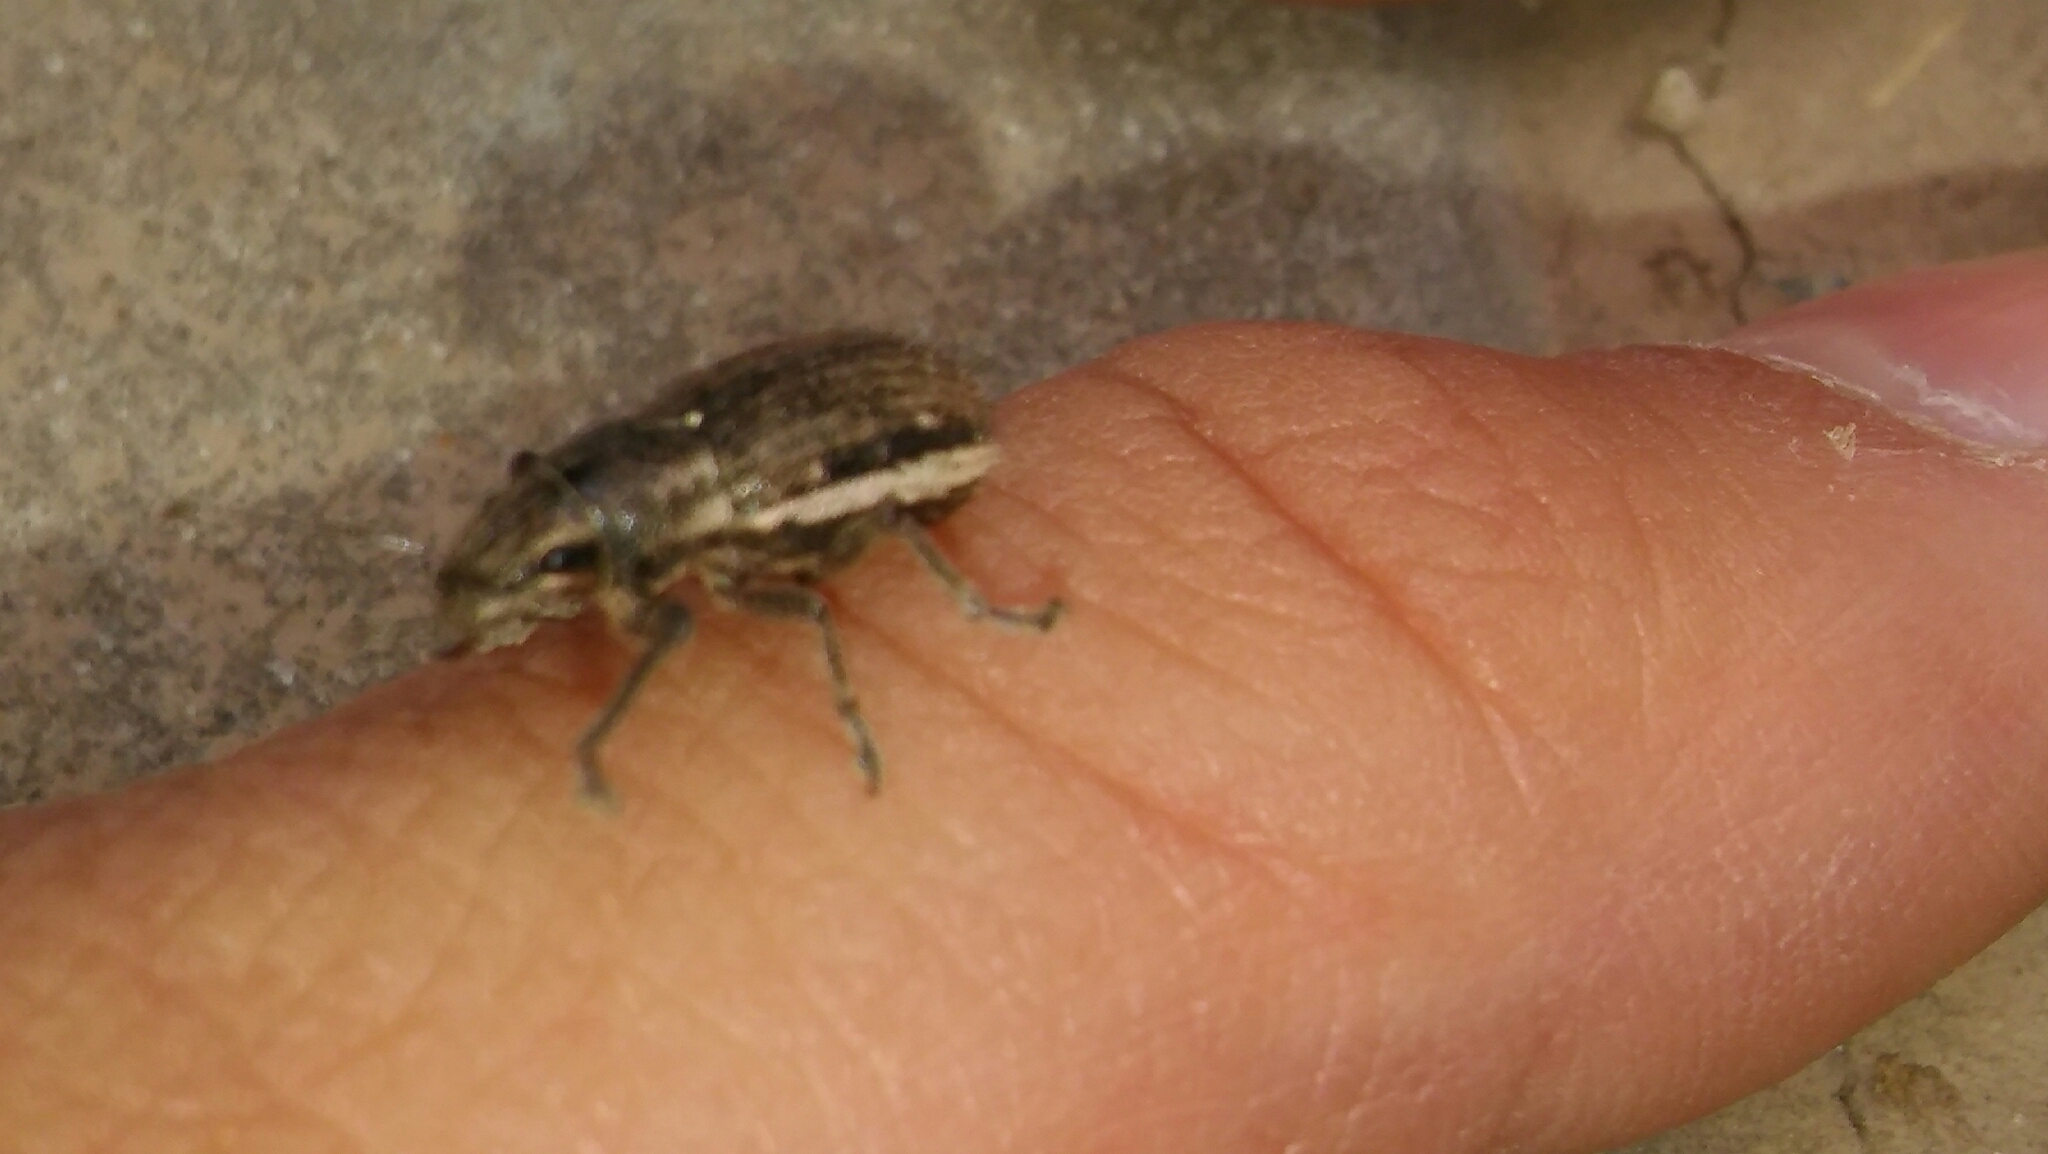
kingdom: Animalia
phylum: Arthropoda
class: Insecta
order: Coleoptera
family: Curculionidae
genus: Naupactus
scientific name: Naupactus leucoloma
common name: Whitefringed beetle
